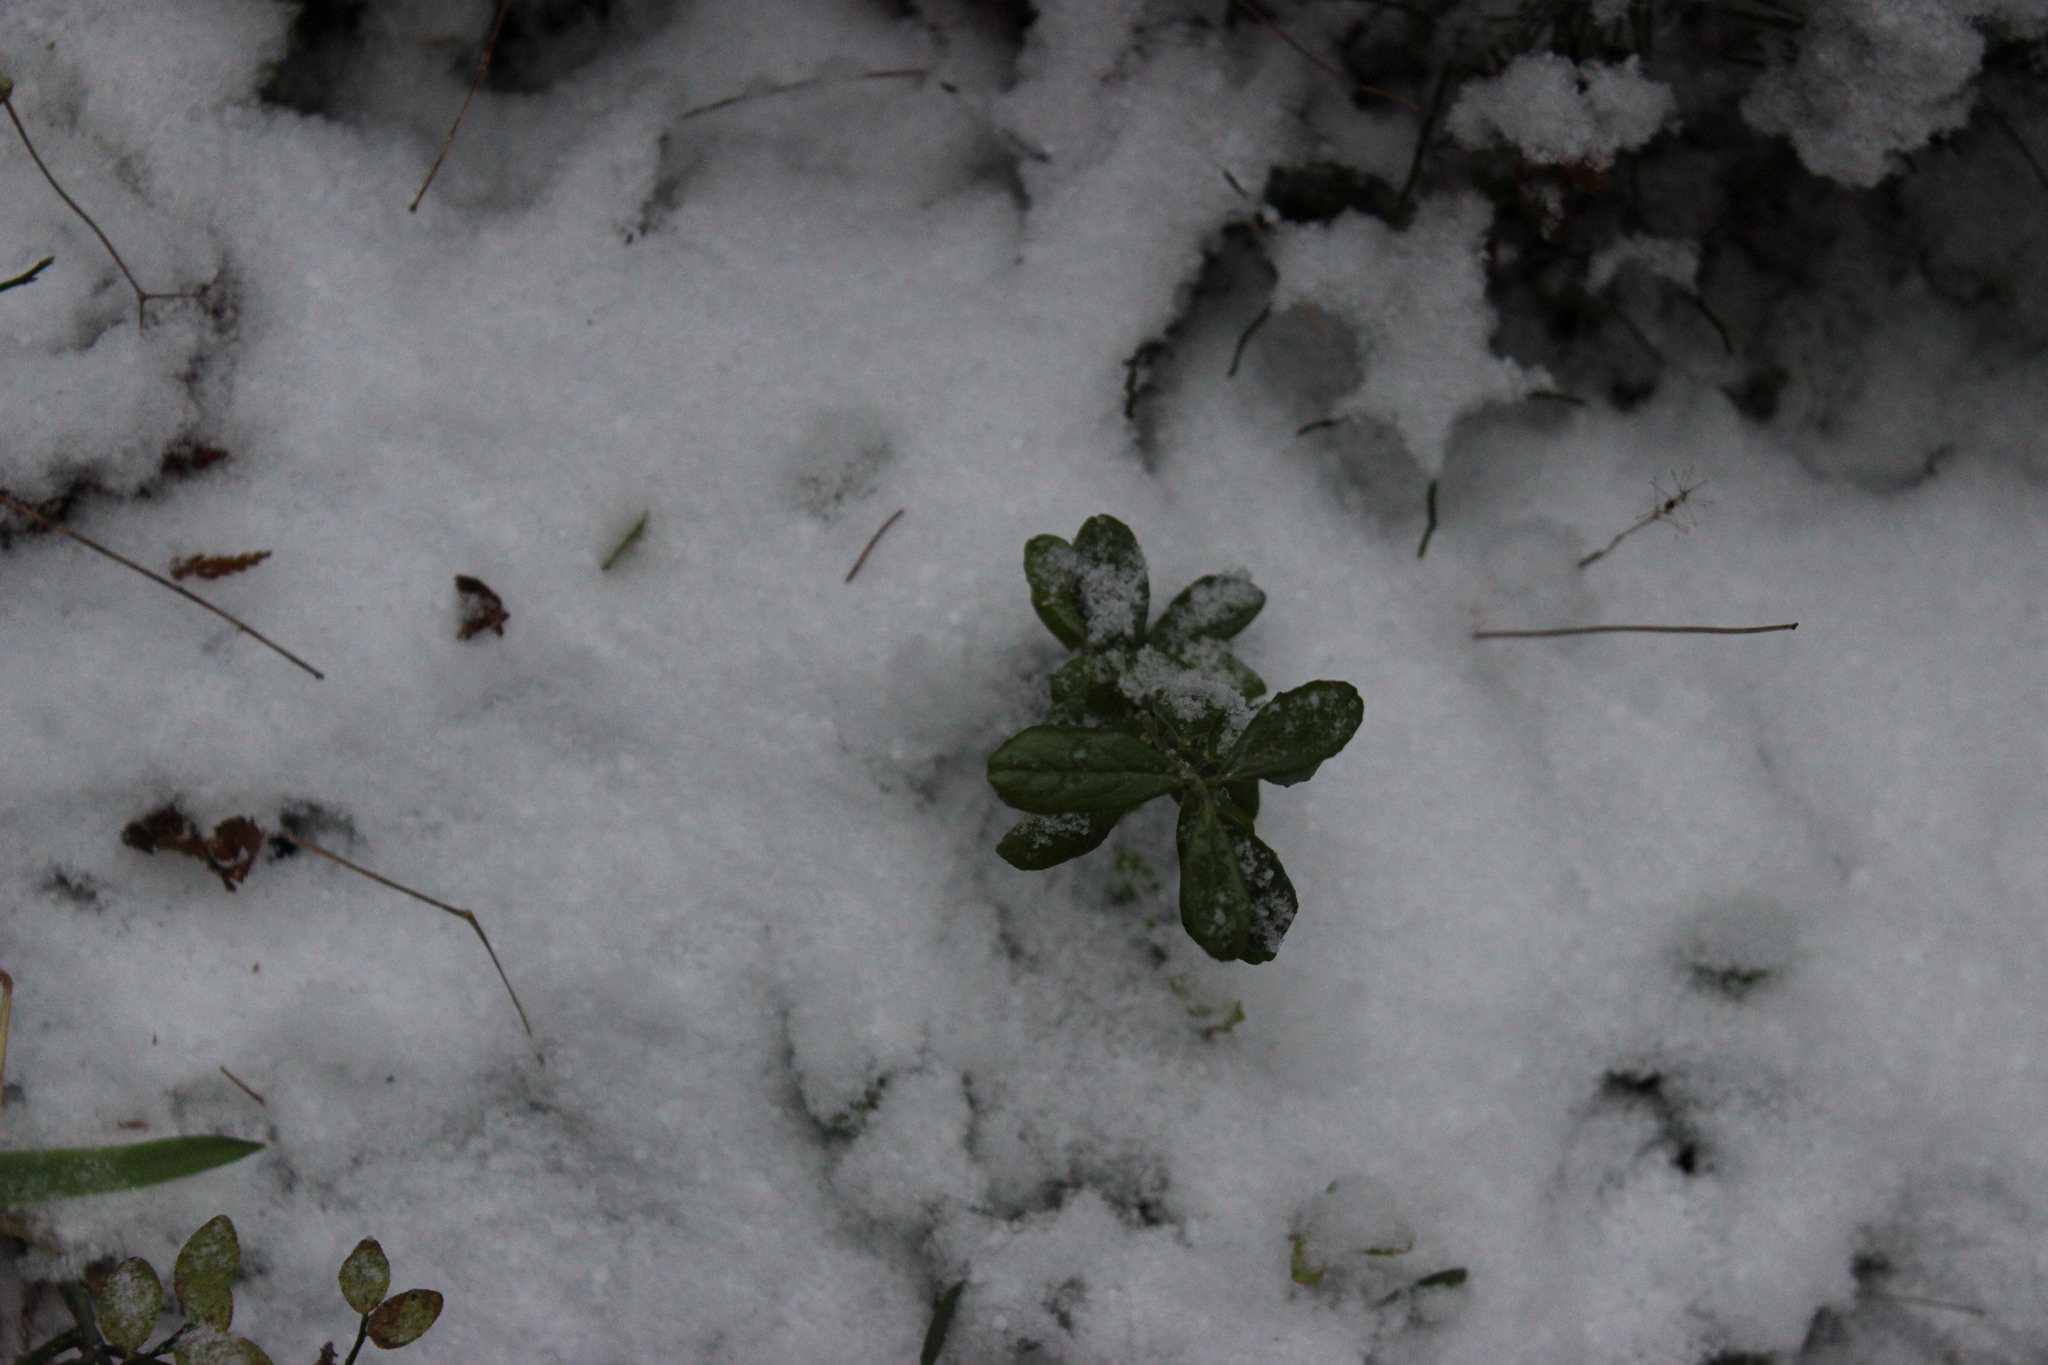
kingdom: Plantae
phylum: Tracheophyta
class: Magnoliopsida
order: Ericales
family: Ericaceae
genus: Vaccinium
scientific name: Vaccinium vitis-idaea
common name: Cowberry
